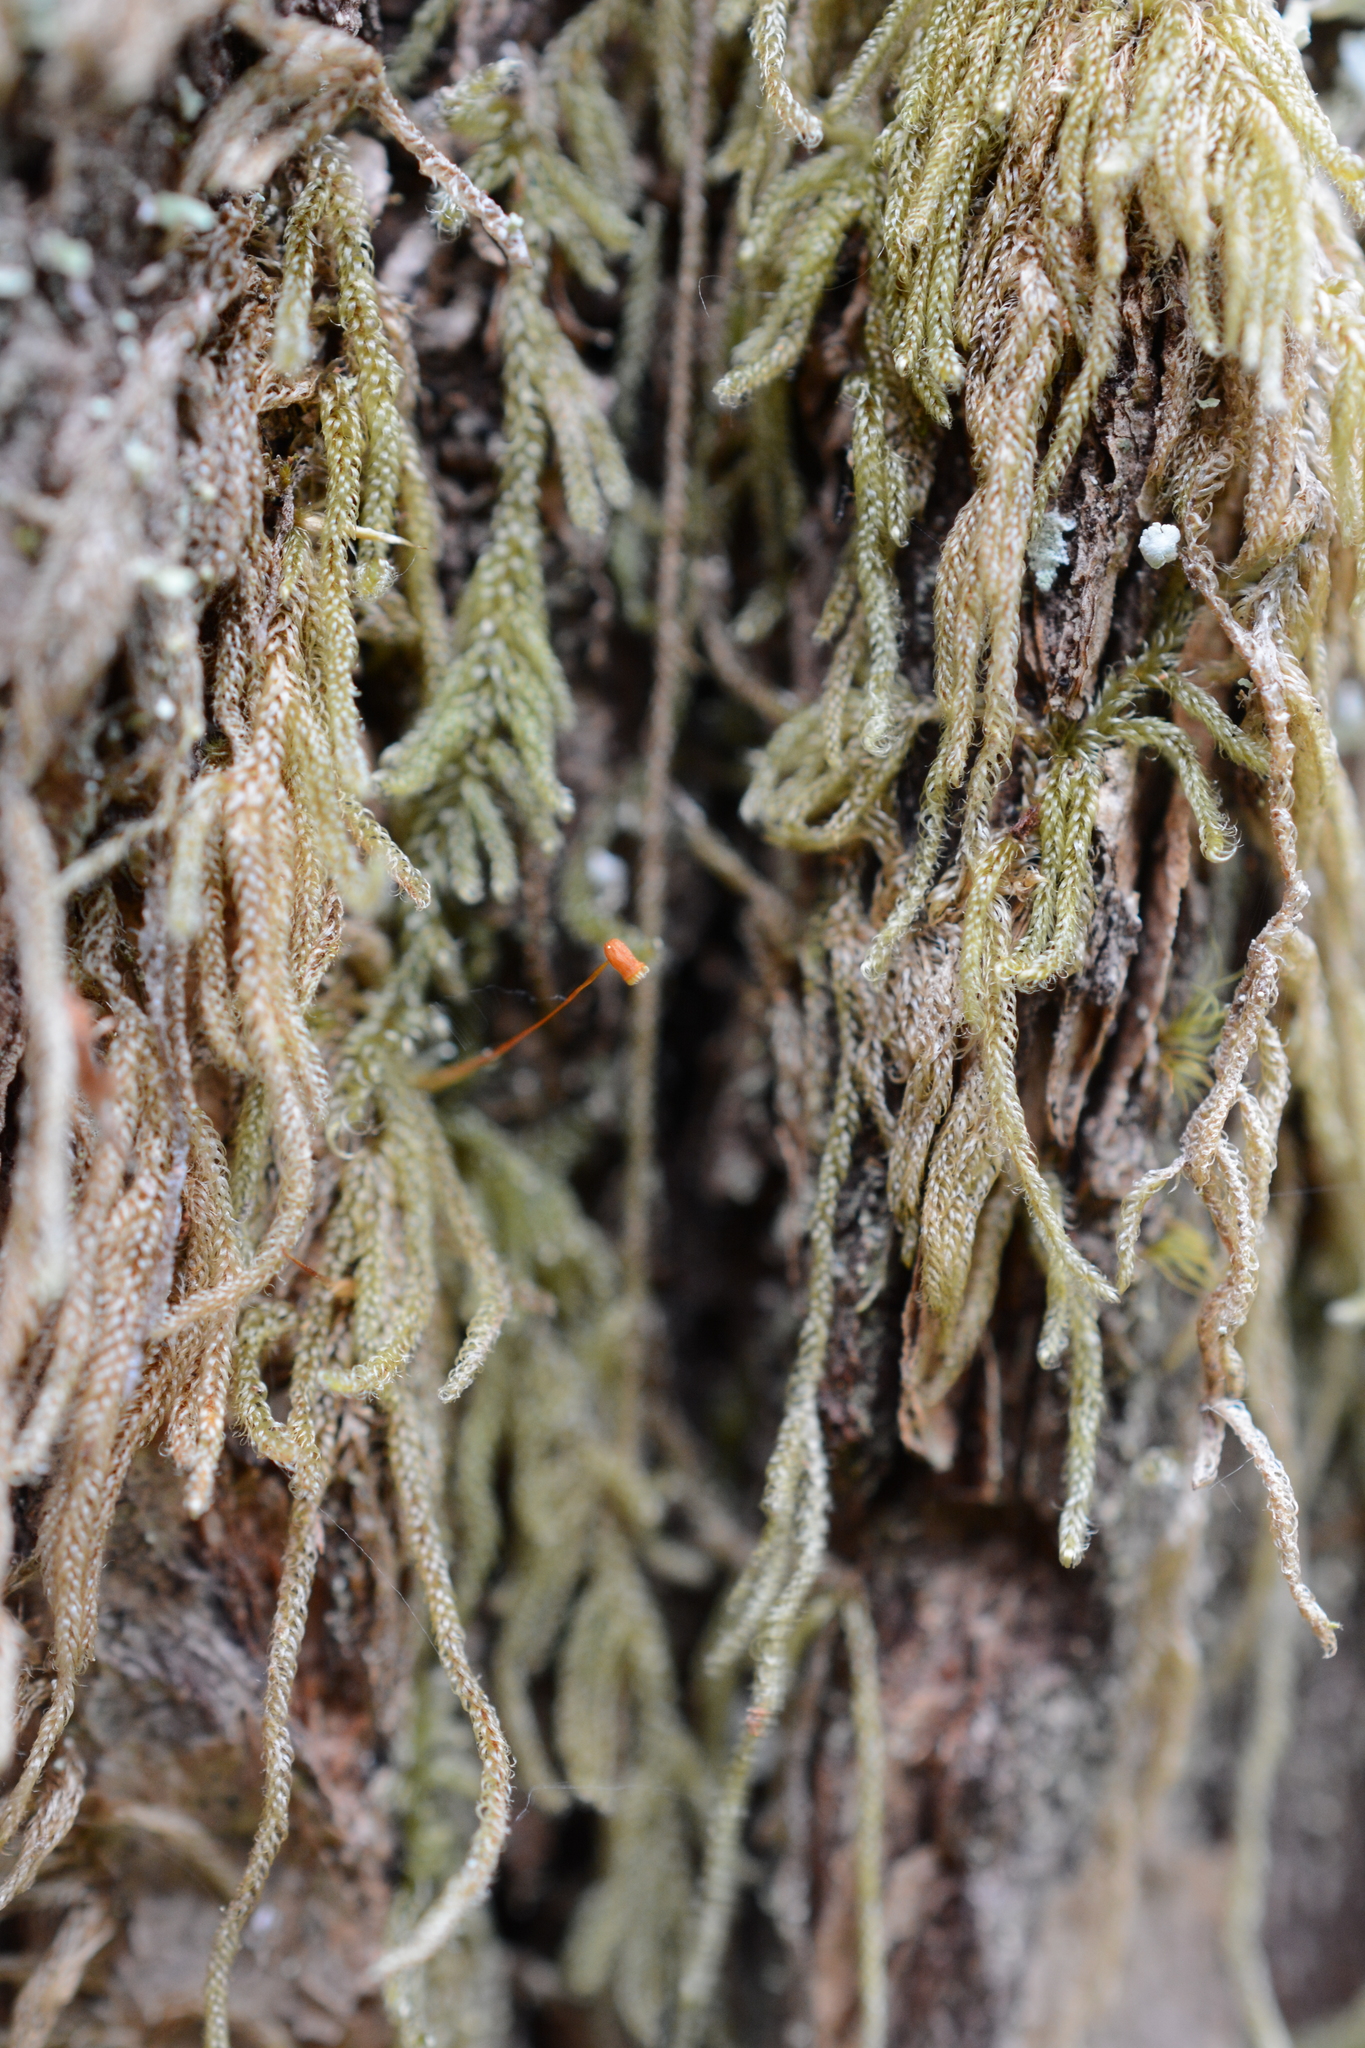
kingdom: Plantae
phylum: Bryophyta
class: Bryopsida
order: Hypnales
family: Pylaisiadelphaceae
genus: Trochophyllohypnum
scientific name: Trochophyllohypnum circinale
